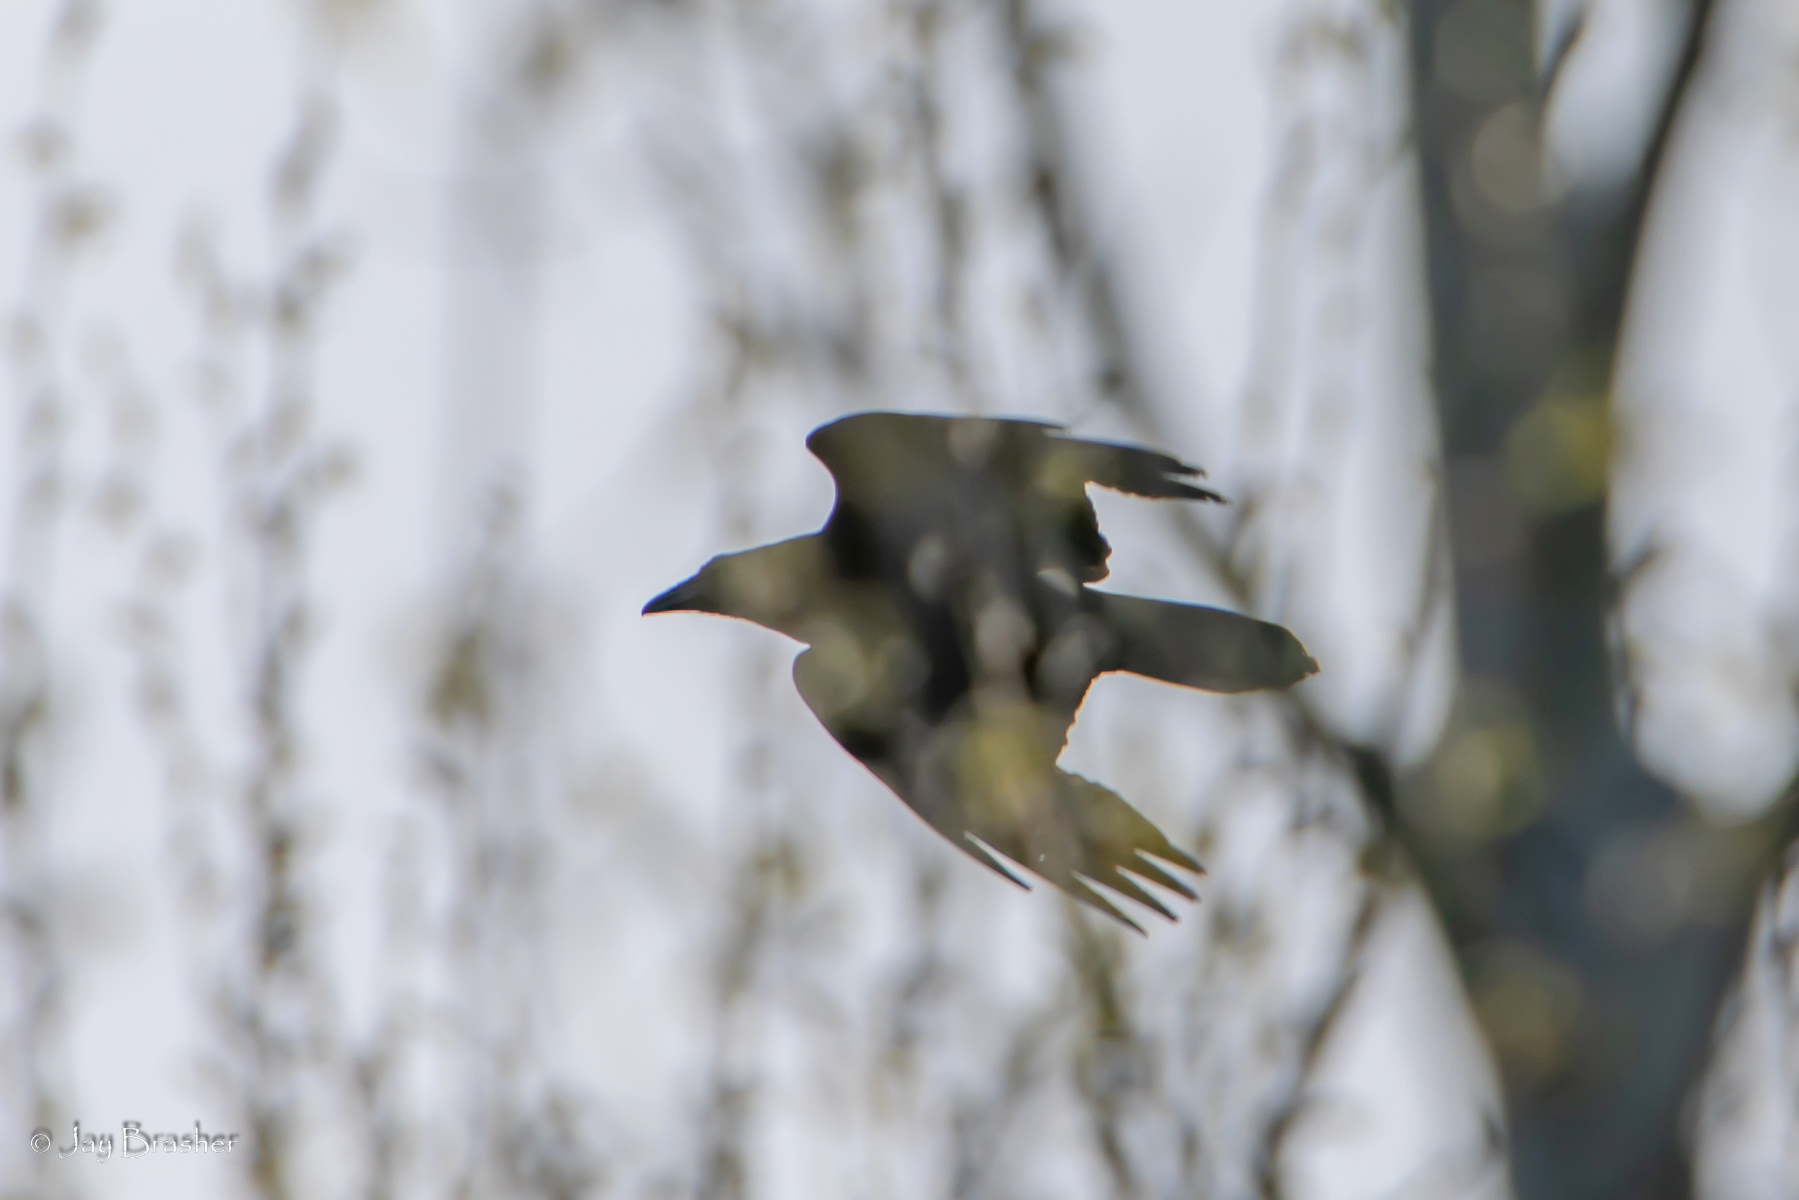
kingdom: Animalia
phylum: Chordata
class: Aves
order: Passeriformes
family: Corvidae
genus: Corvus
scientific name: Corvus corax
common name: Common raven
